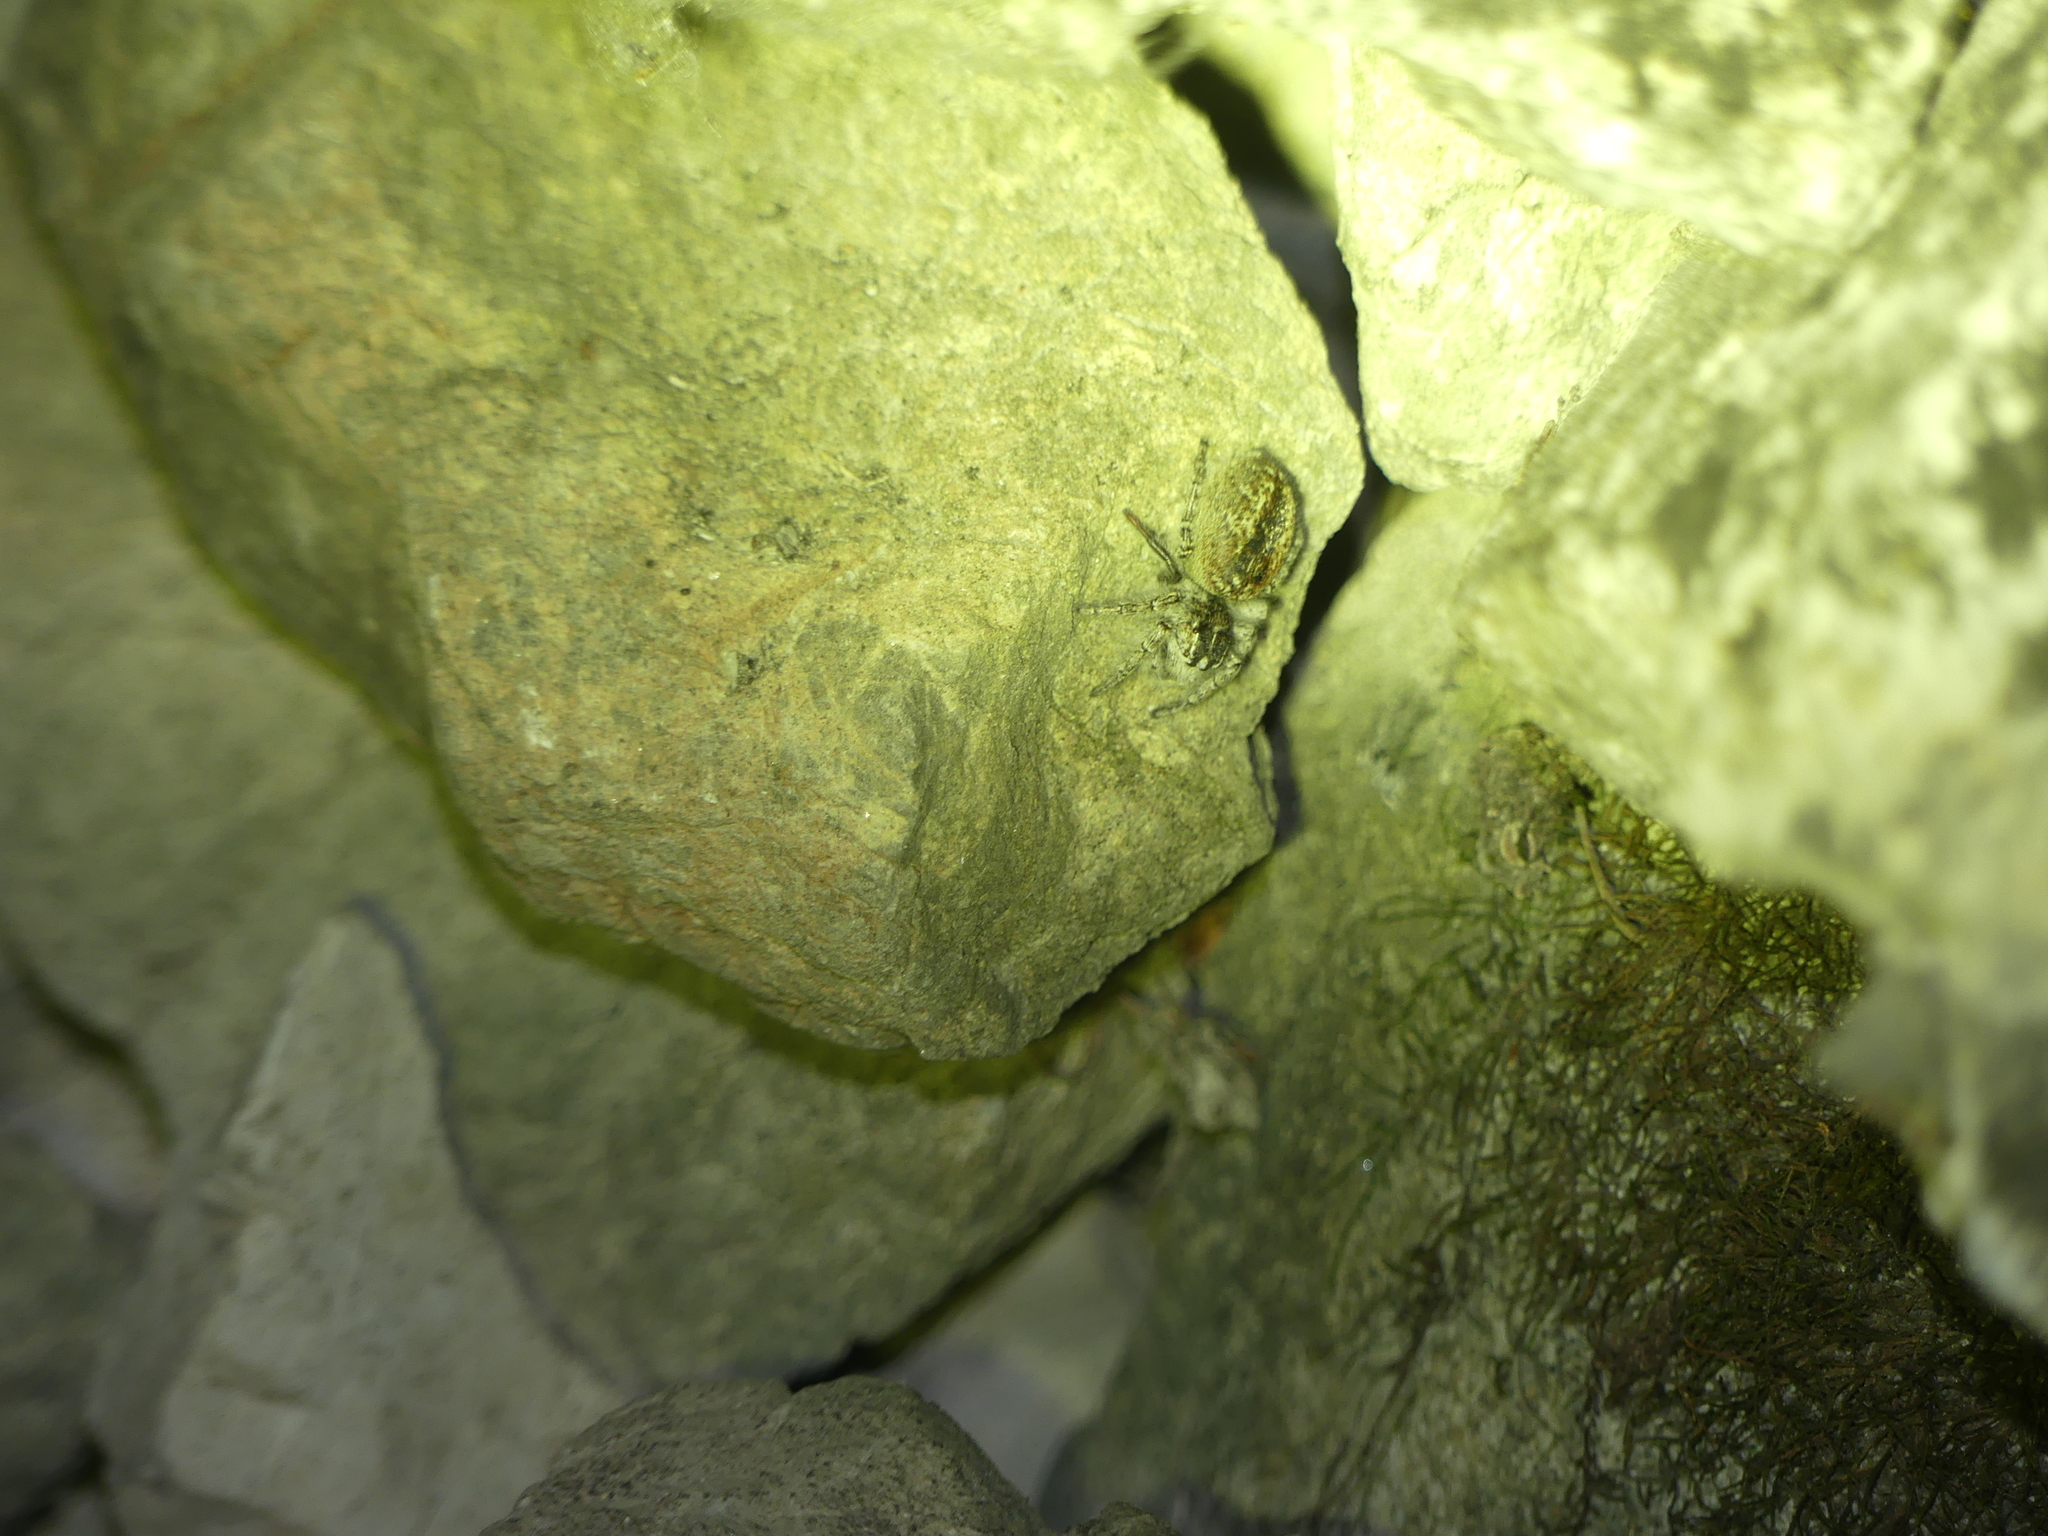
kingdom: Animalia
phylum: Arthropoda
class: Arachnida
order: Araneae
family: Salticidae
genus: Philaeus
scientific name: Philaeus chrysops
